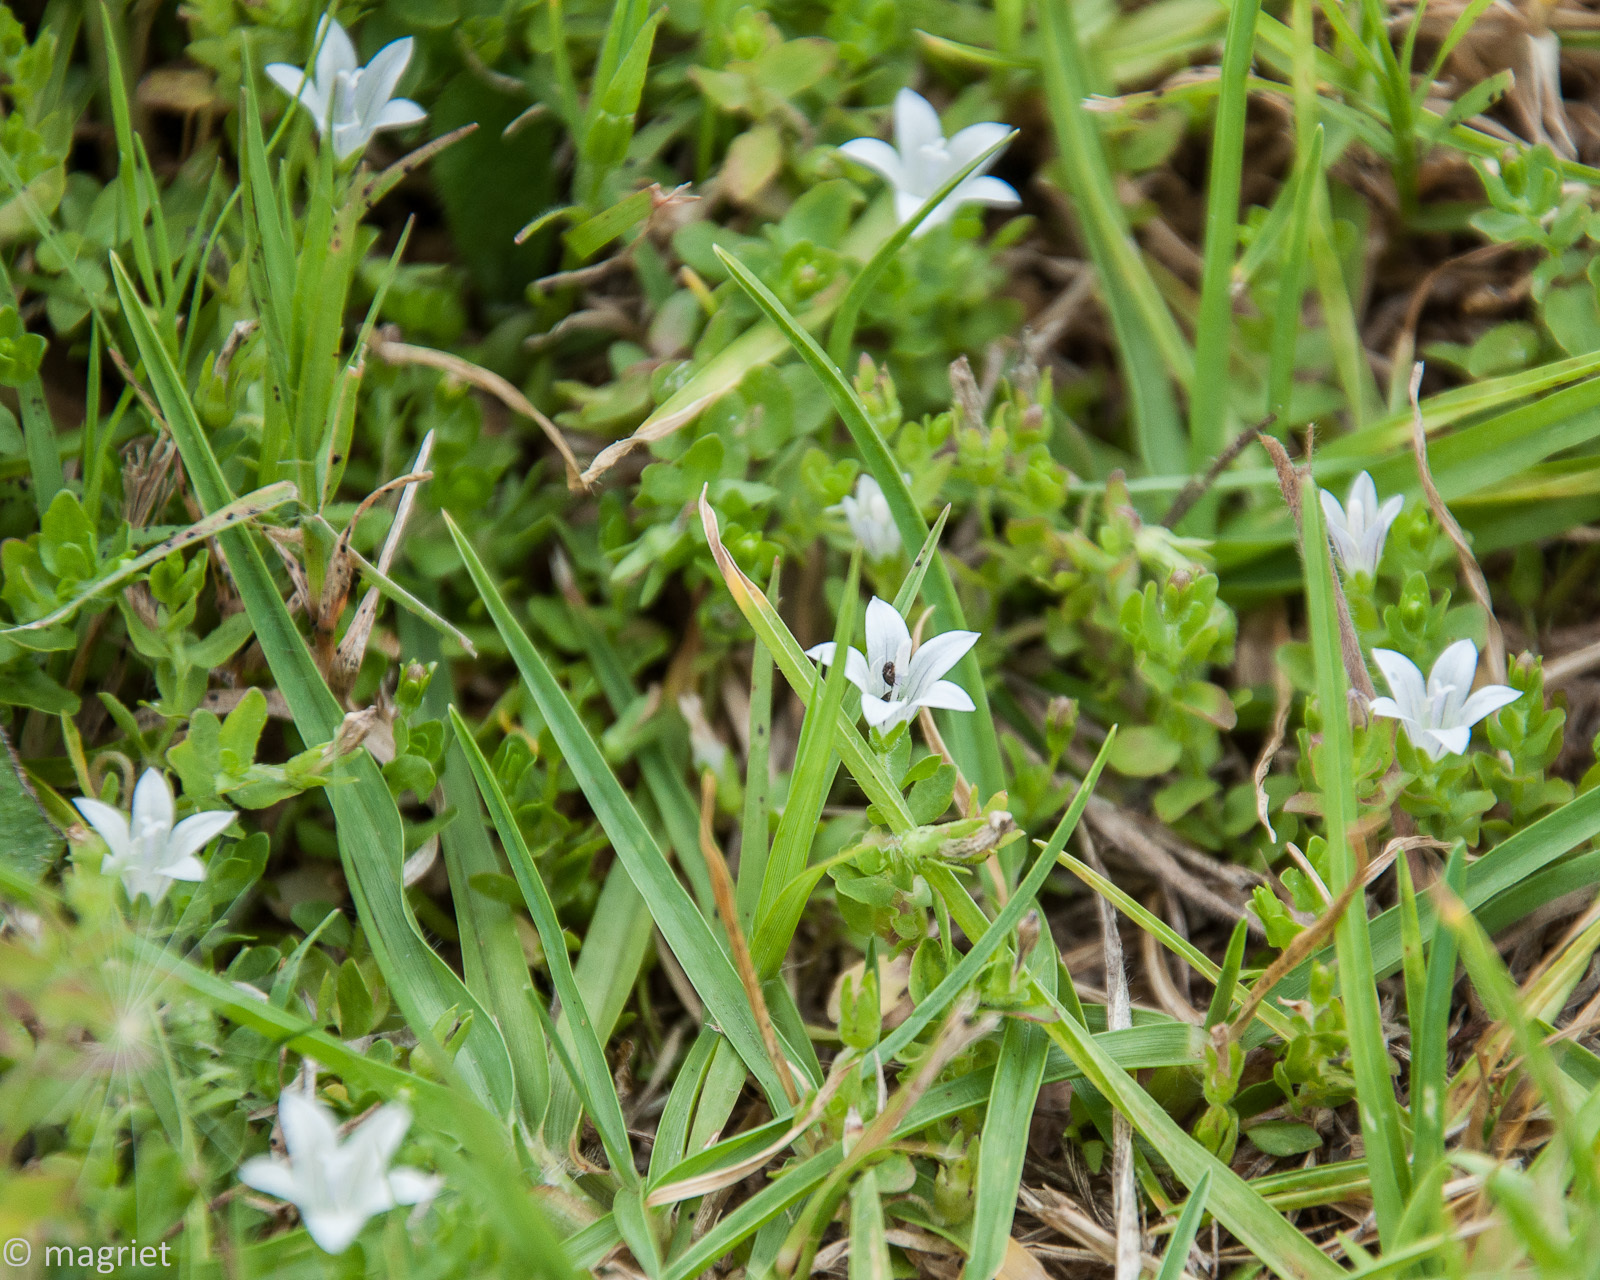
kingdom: Plantae
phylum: Tracheophyta
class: Magnoliopsida
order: Asterales
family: Campanulaceae
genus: Wahlenbergia
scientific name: Wahlenbergia procumbens
